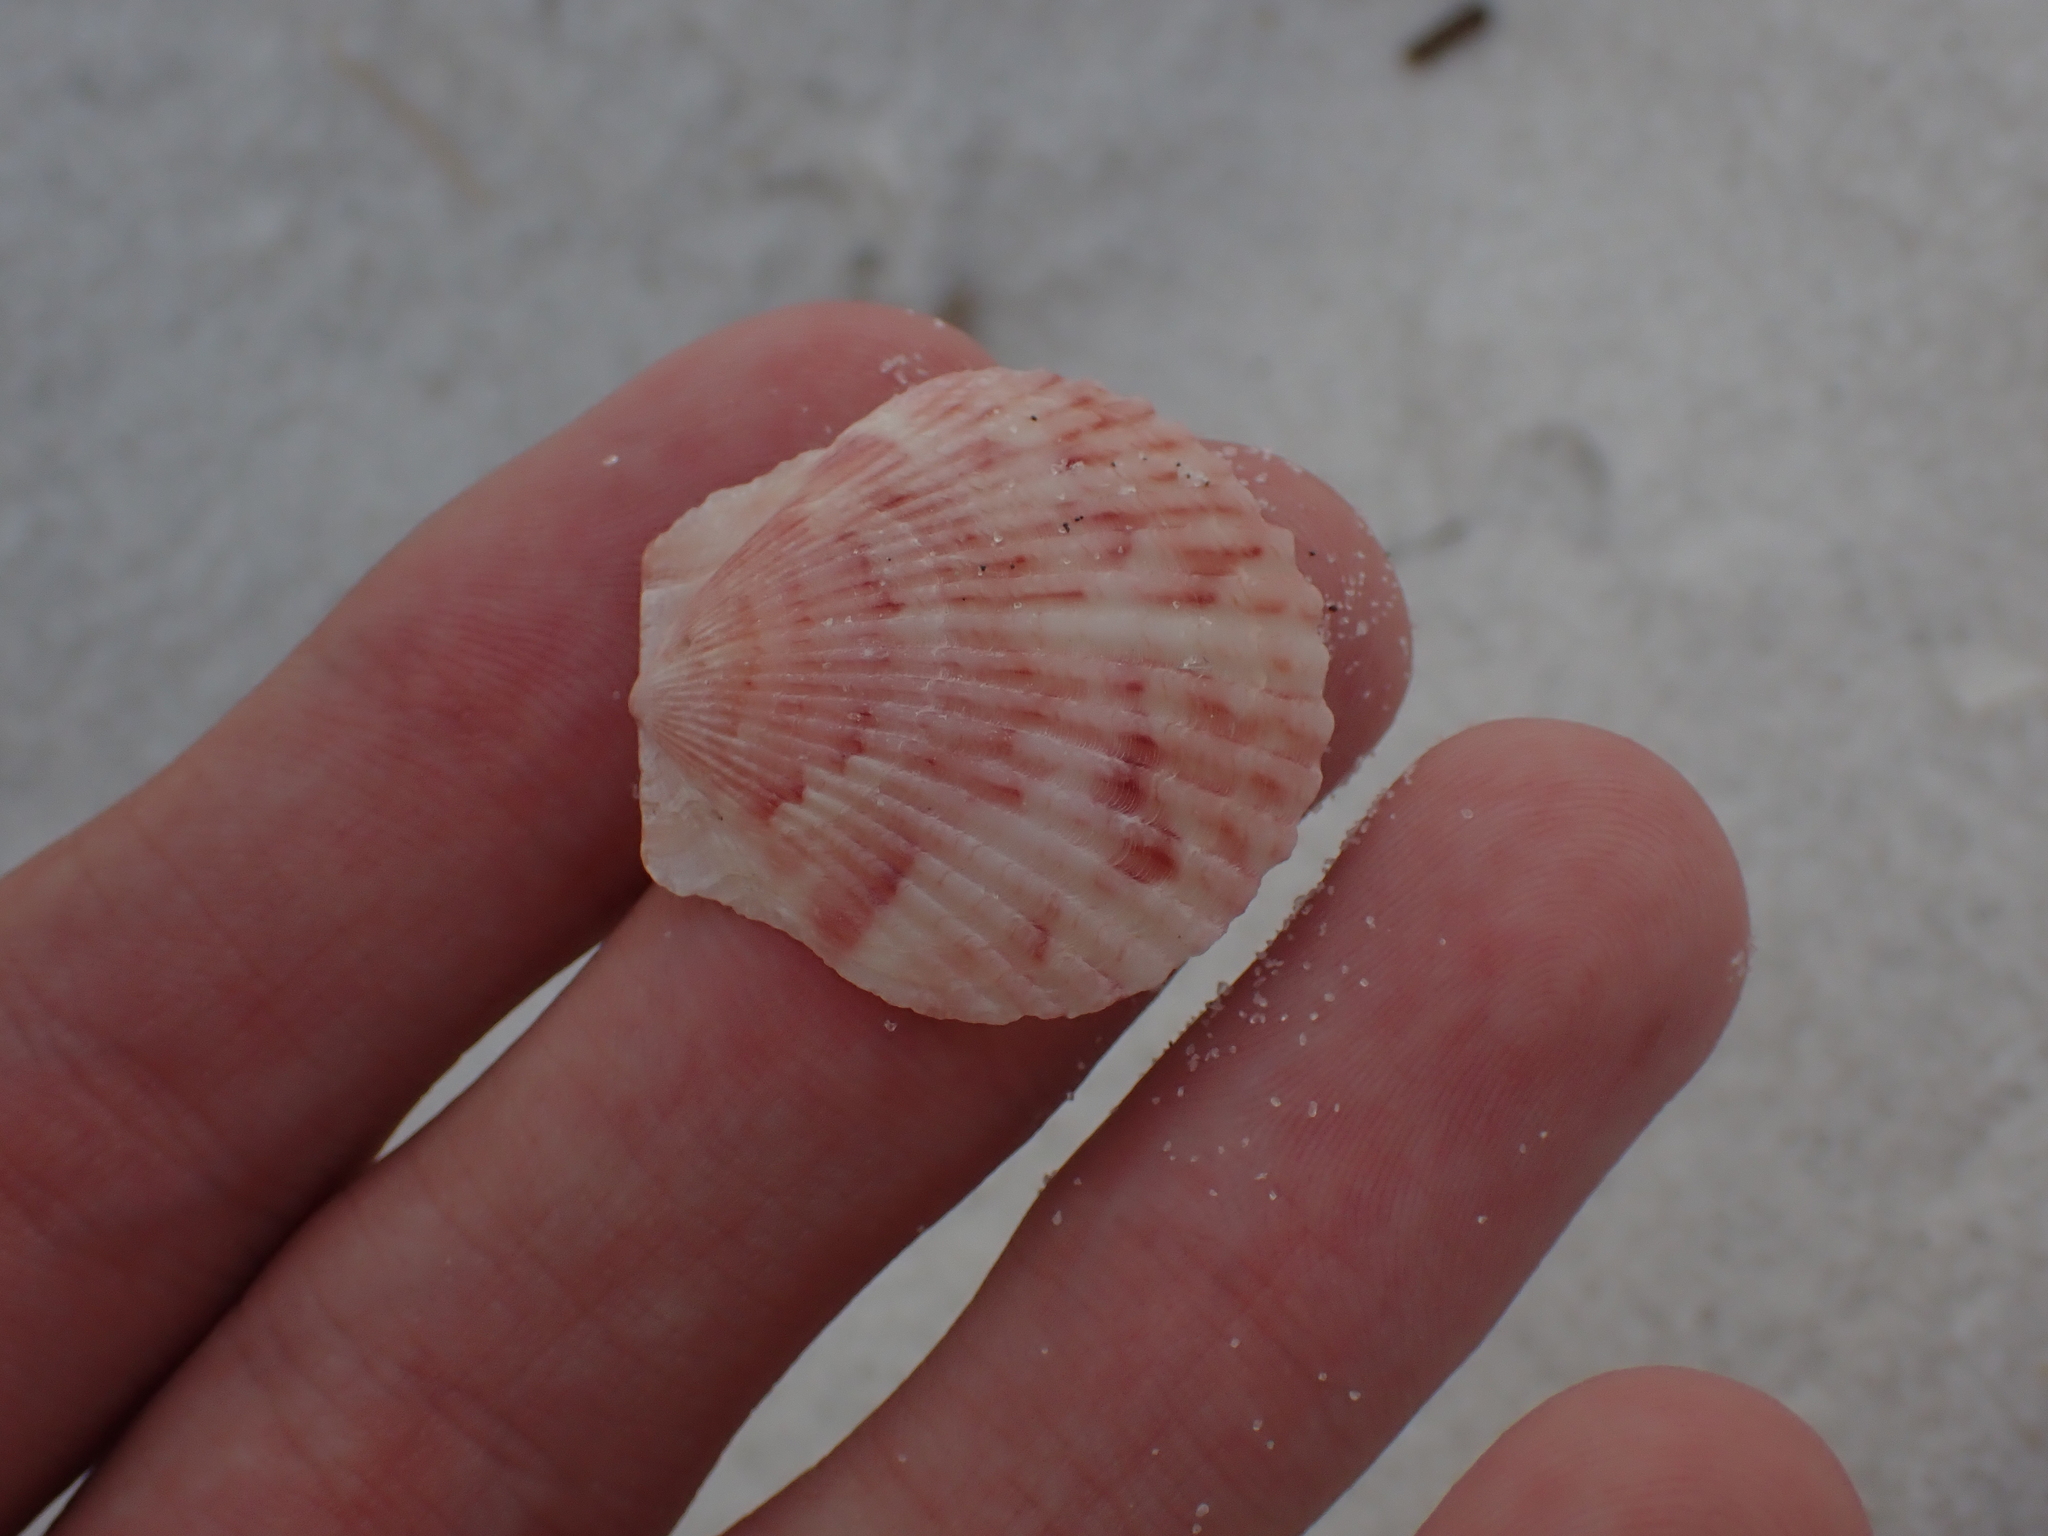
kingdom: Animalia
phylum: Mollusca
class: Bivalvia
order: Pectinida
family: Pectinidae
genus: Argopecten
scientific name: Argopecten gibbus
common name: Atlantic calico scallop
